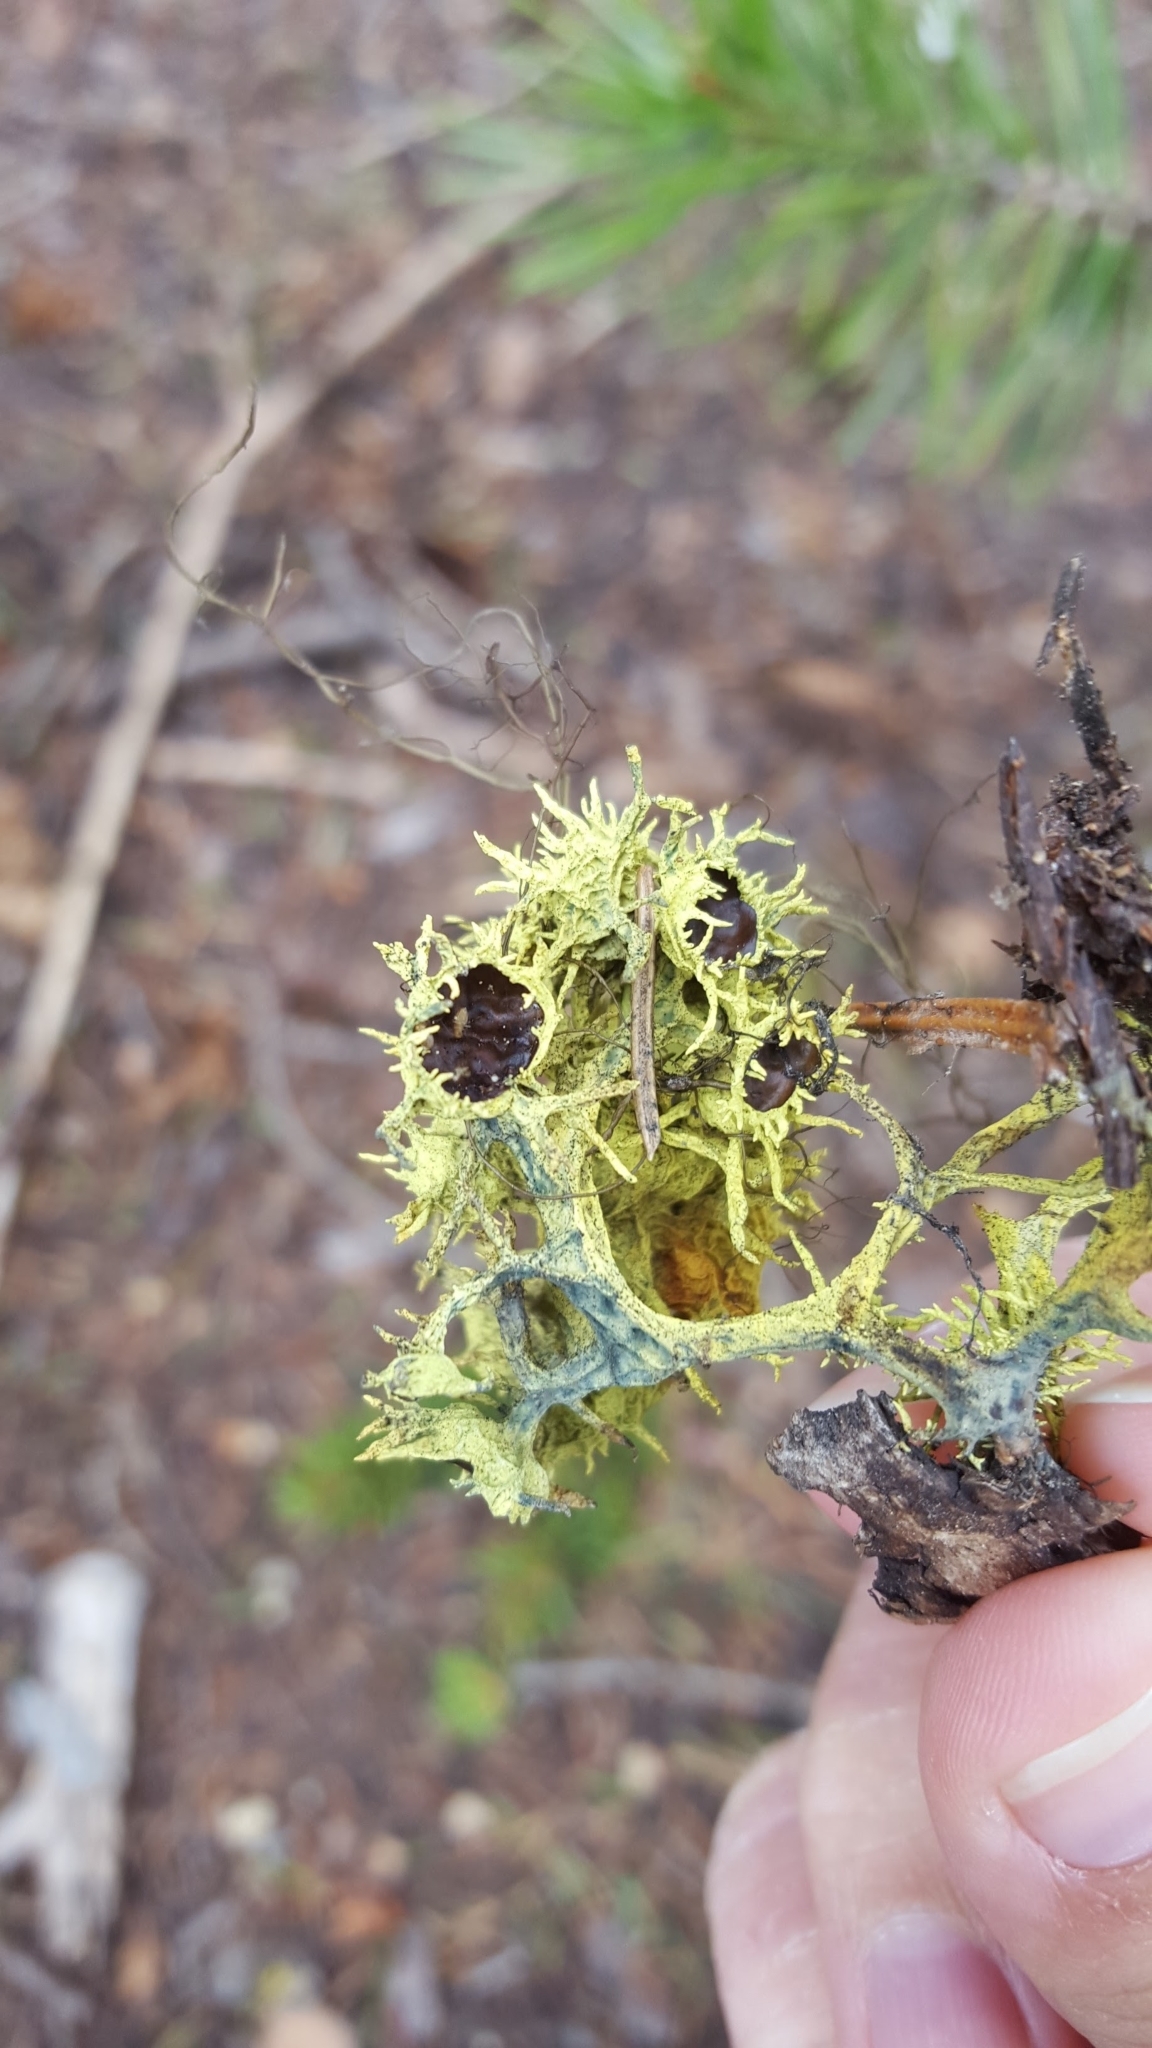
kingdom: Fungi
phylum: Ascomycota
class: Lecanoromycetes
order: Lecanorales
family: Parmeliaceae
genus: Letharia
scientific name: Letharia columbiana
